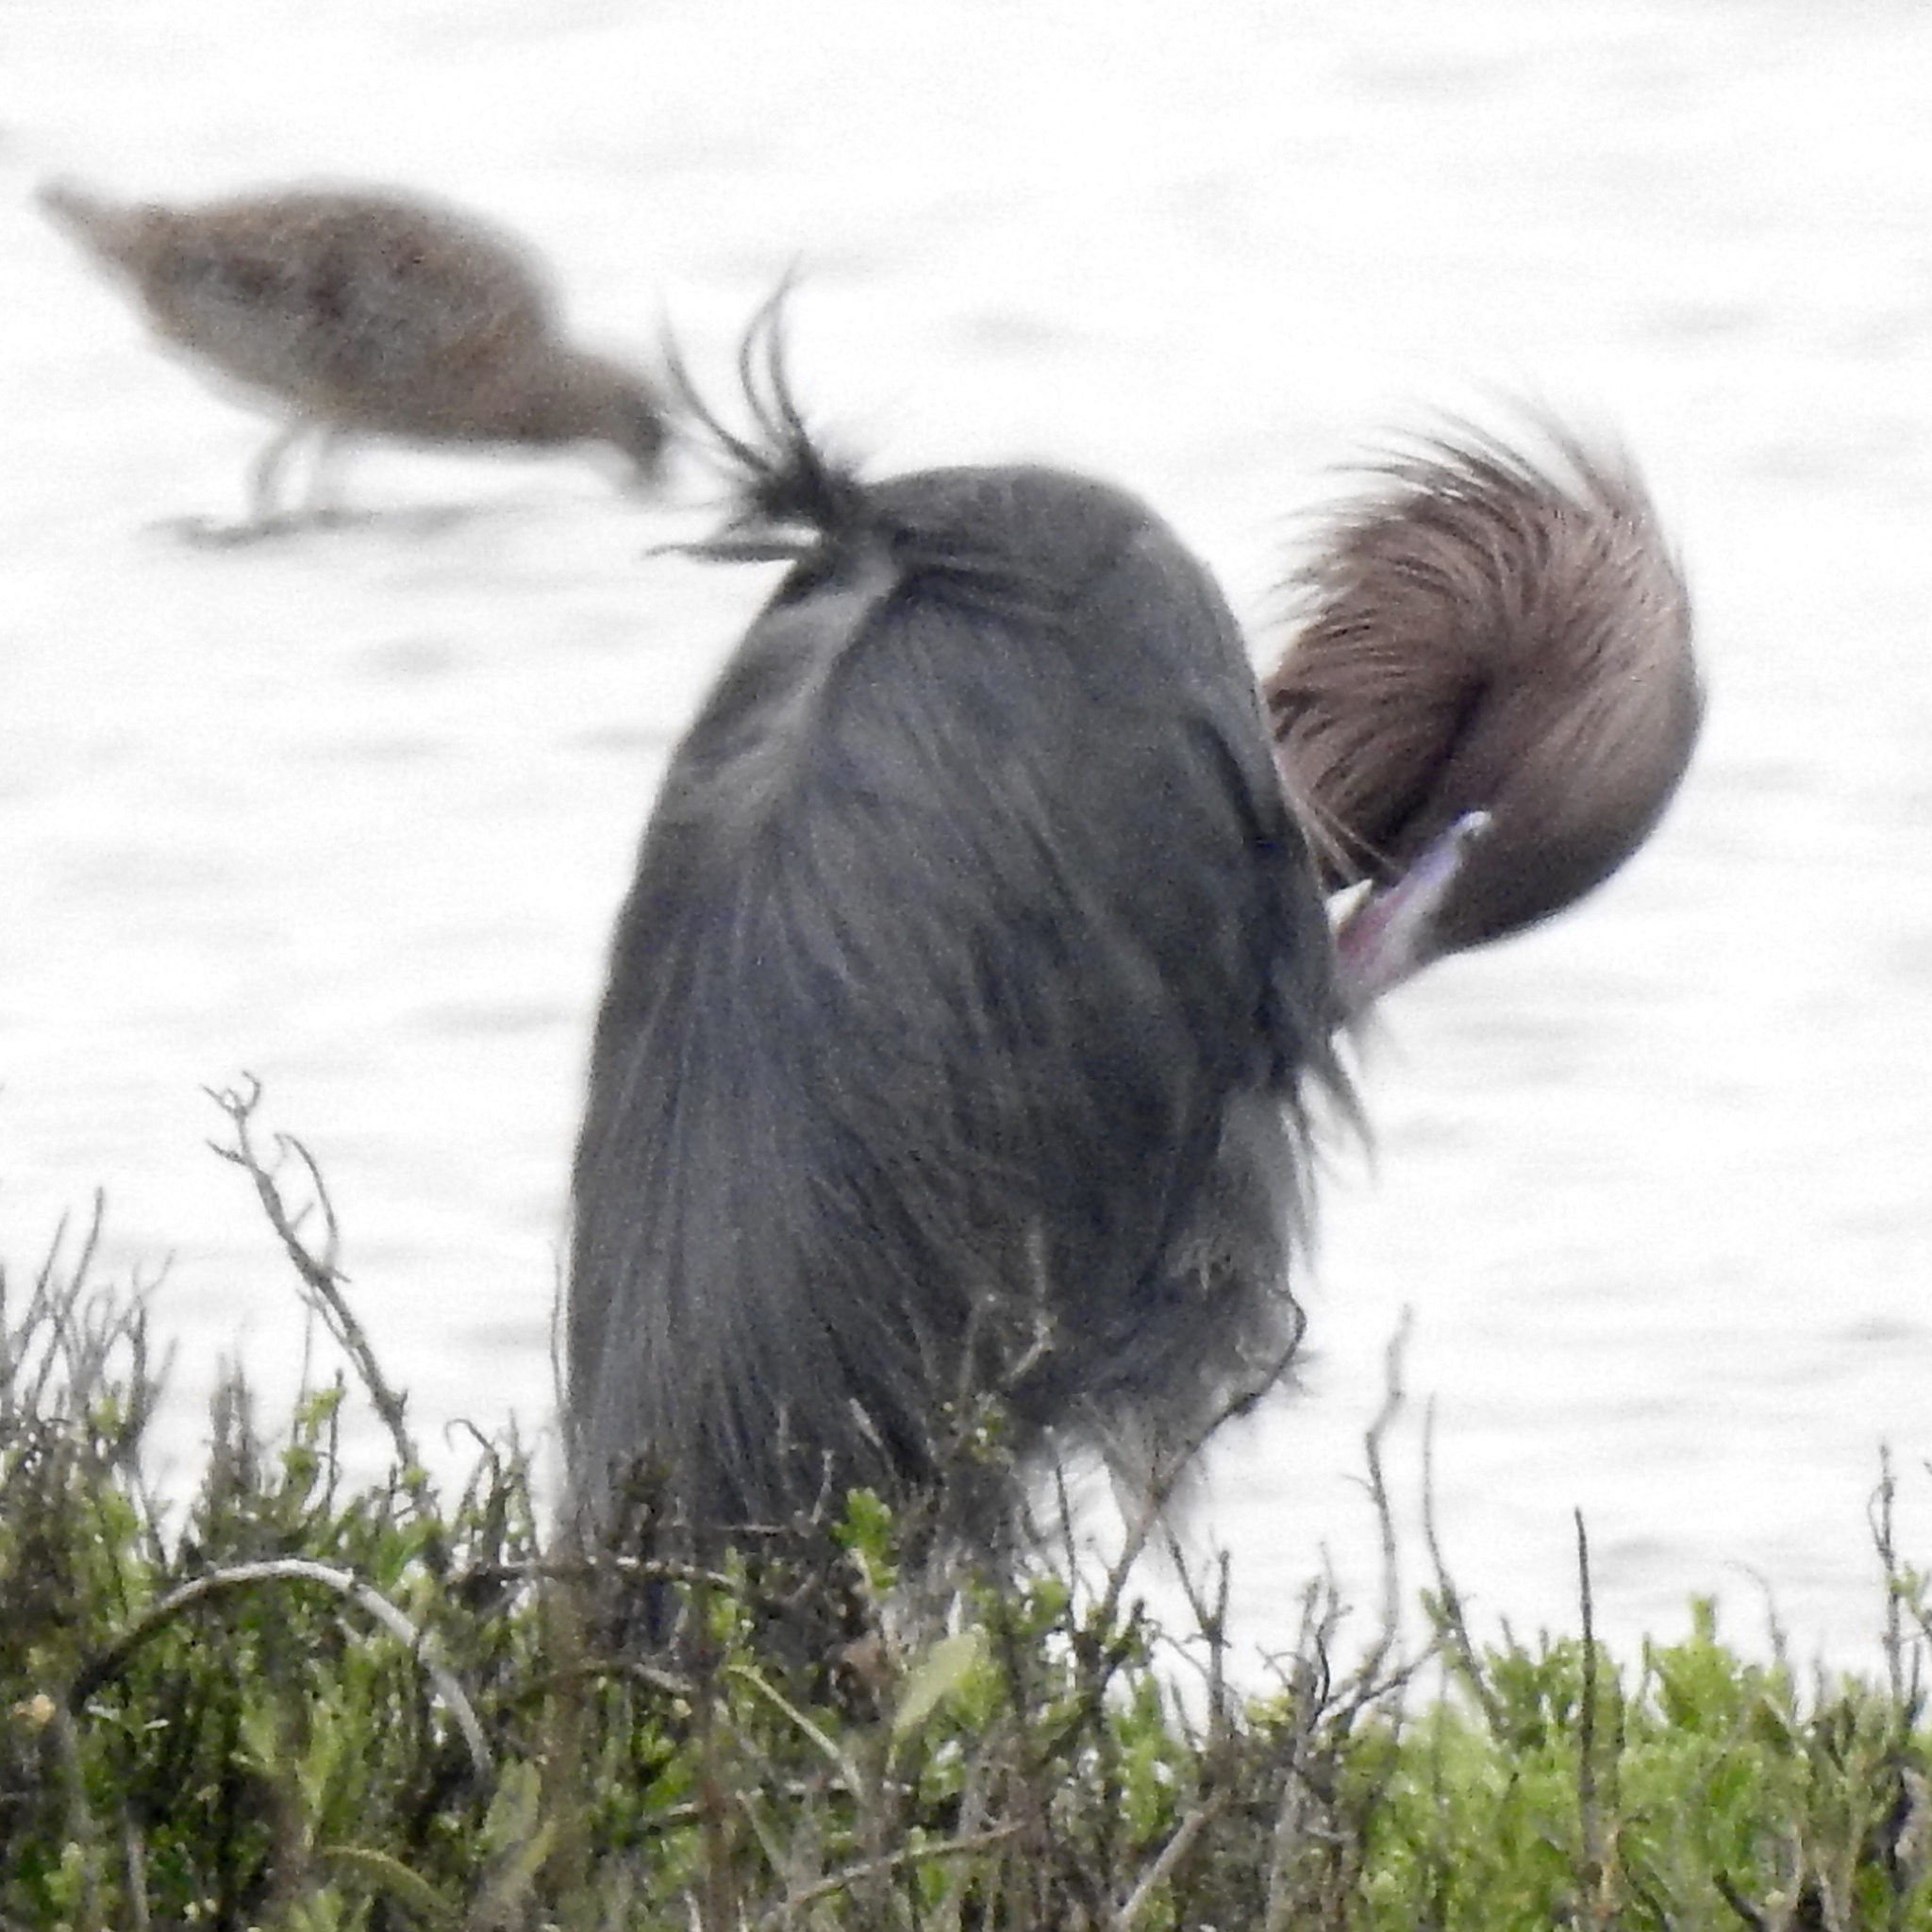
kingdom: Animalia
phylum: Chordata
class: Aves
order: Pelecaniformes
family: Ardeidae
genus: Egretta
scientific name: Egretta rufescens
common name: Reddish egret
